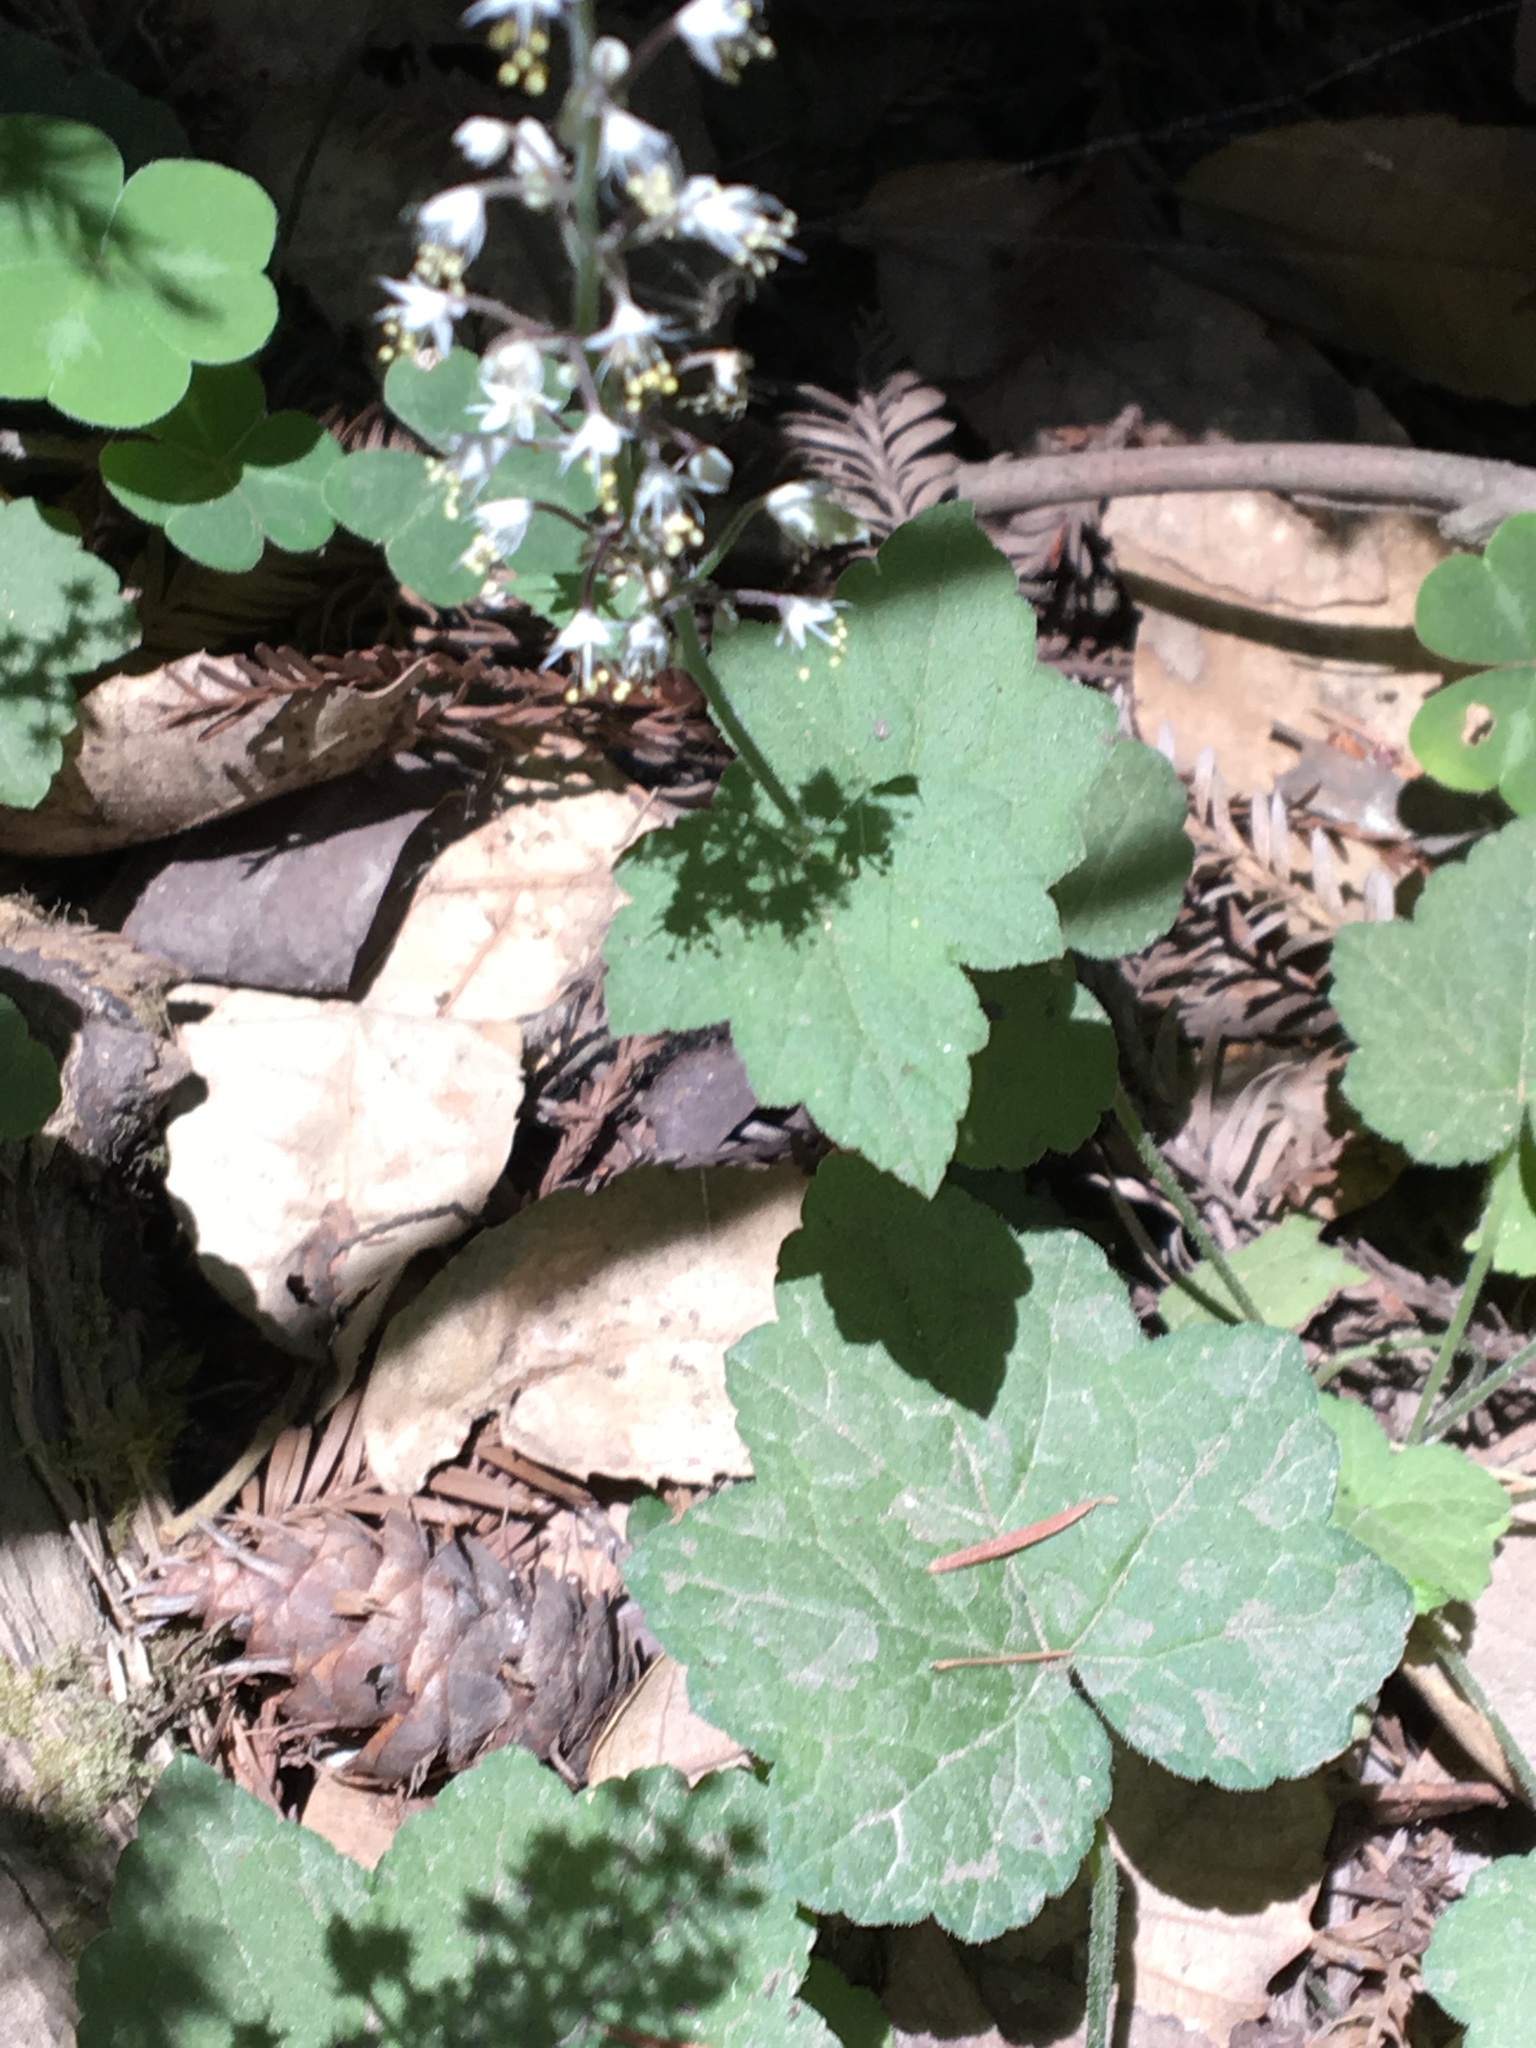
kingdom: Plantae
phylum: Tracheophyta
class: Magnoliopsida
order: Saxifragales
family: Saxifragaceae
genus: Tiarella
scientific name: Tiarella trifoliata
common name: Sugar-scoop
